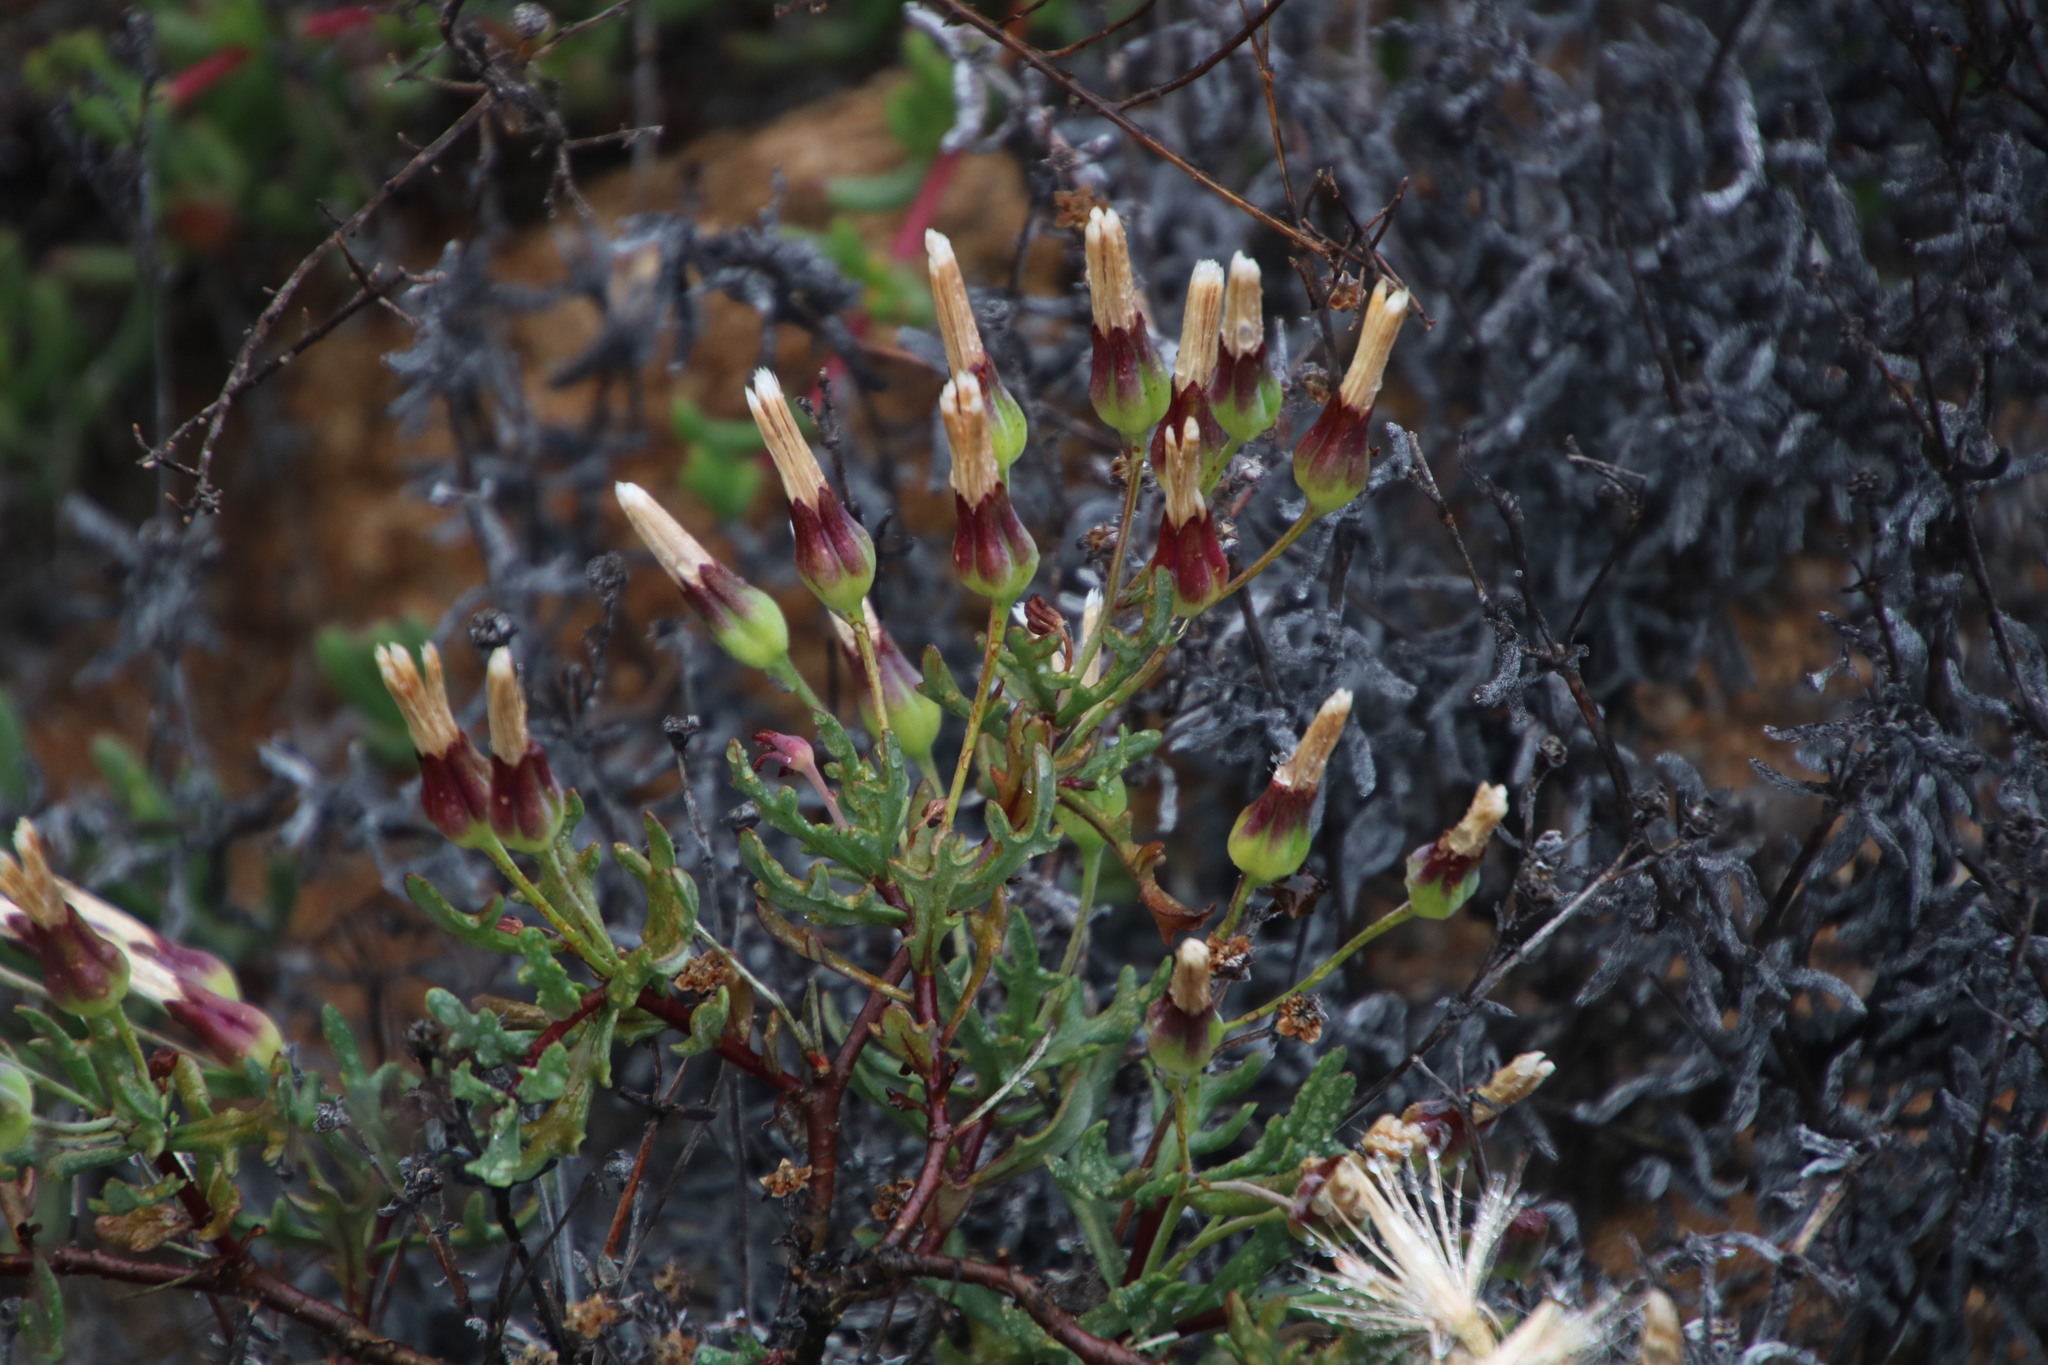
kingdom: Plantae
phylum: Tracheophyta
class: Magnoliopsida
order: Asterales
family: Asteraceae
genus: Othonna
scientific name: Othonna retrofracta
